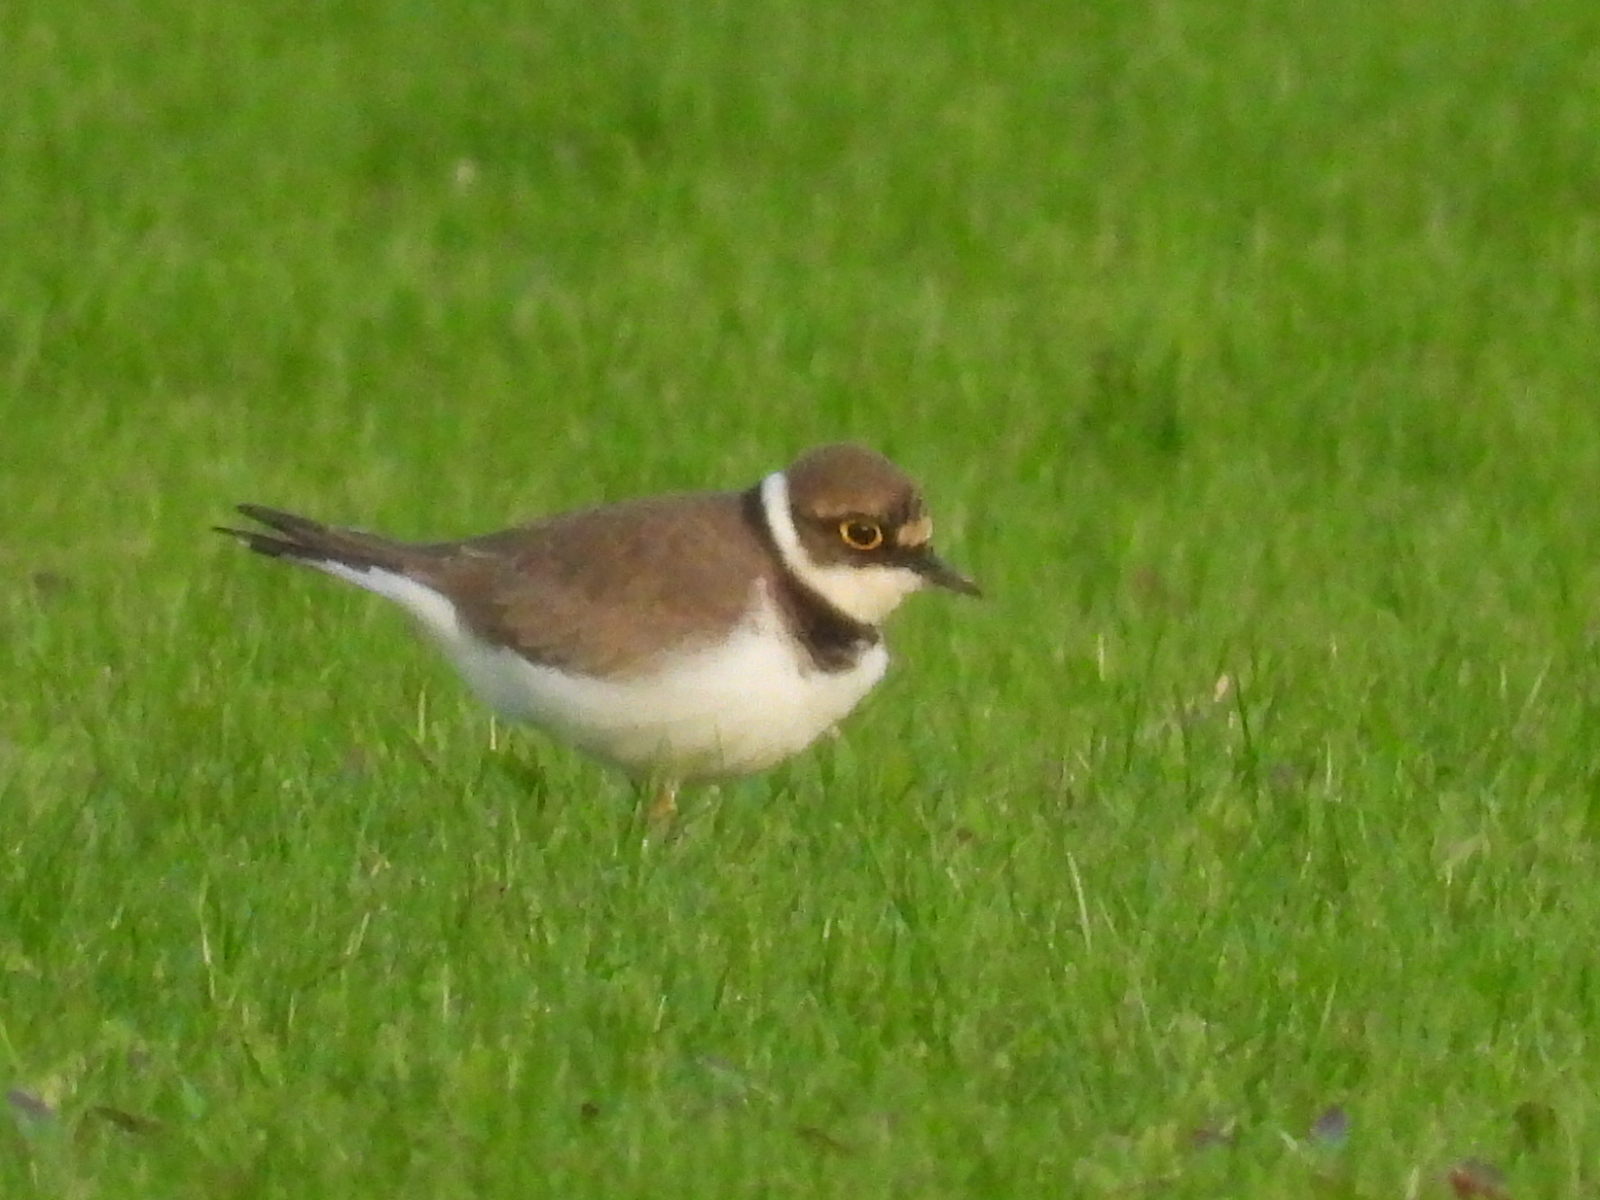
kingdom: Animalia
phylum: Chordata
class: Aves
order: Charadriiformes
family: Charadriidae
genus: Charadrius
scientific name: Charadrius dubius
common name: Little ringed plover
